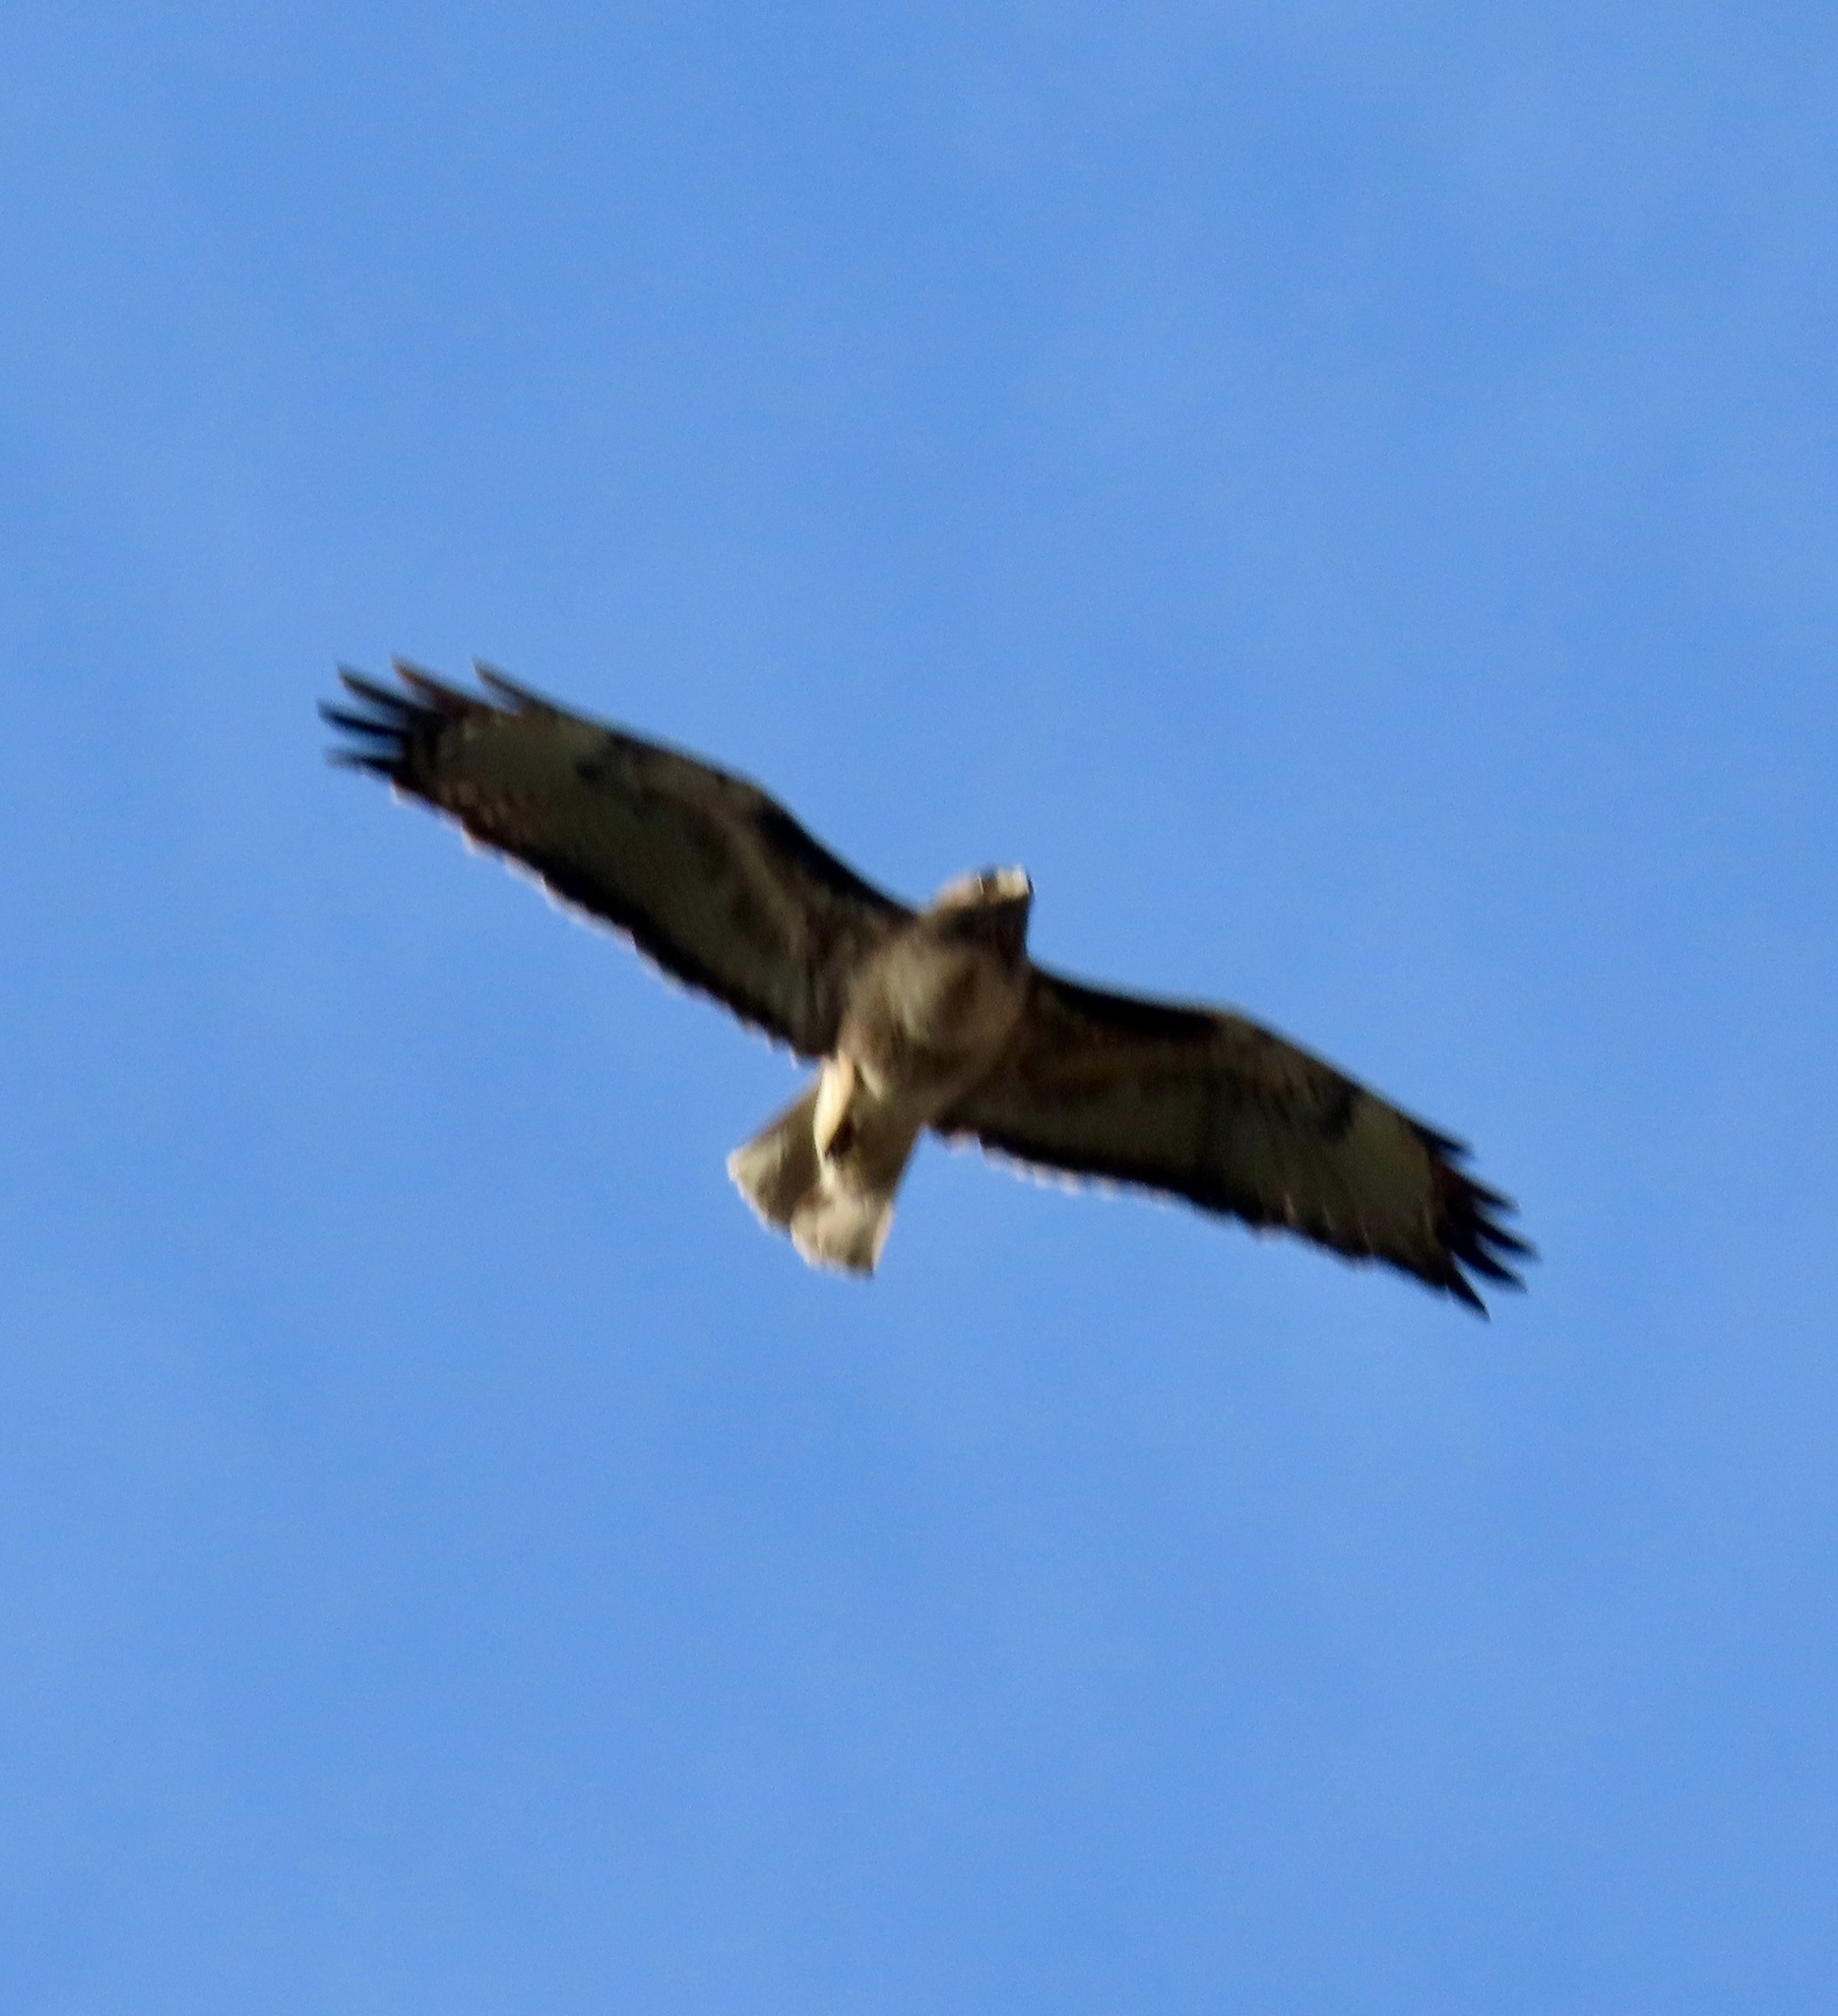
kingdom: Animalia
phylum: Chordata
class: Aves
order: Accipitriformes
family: Accipitridae
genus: Buteo
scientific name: Buteo jamaicensis
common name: Red-tailed hawk
